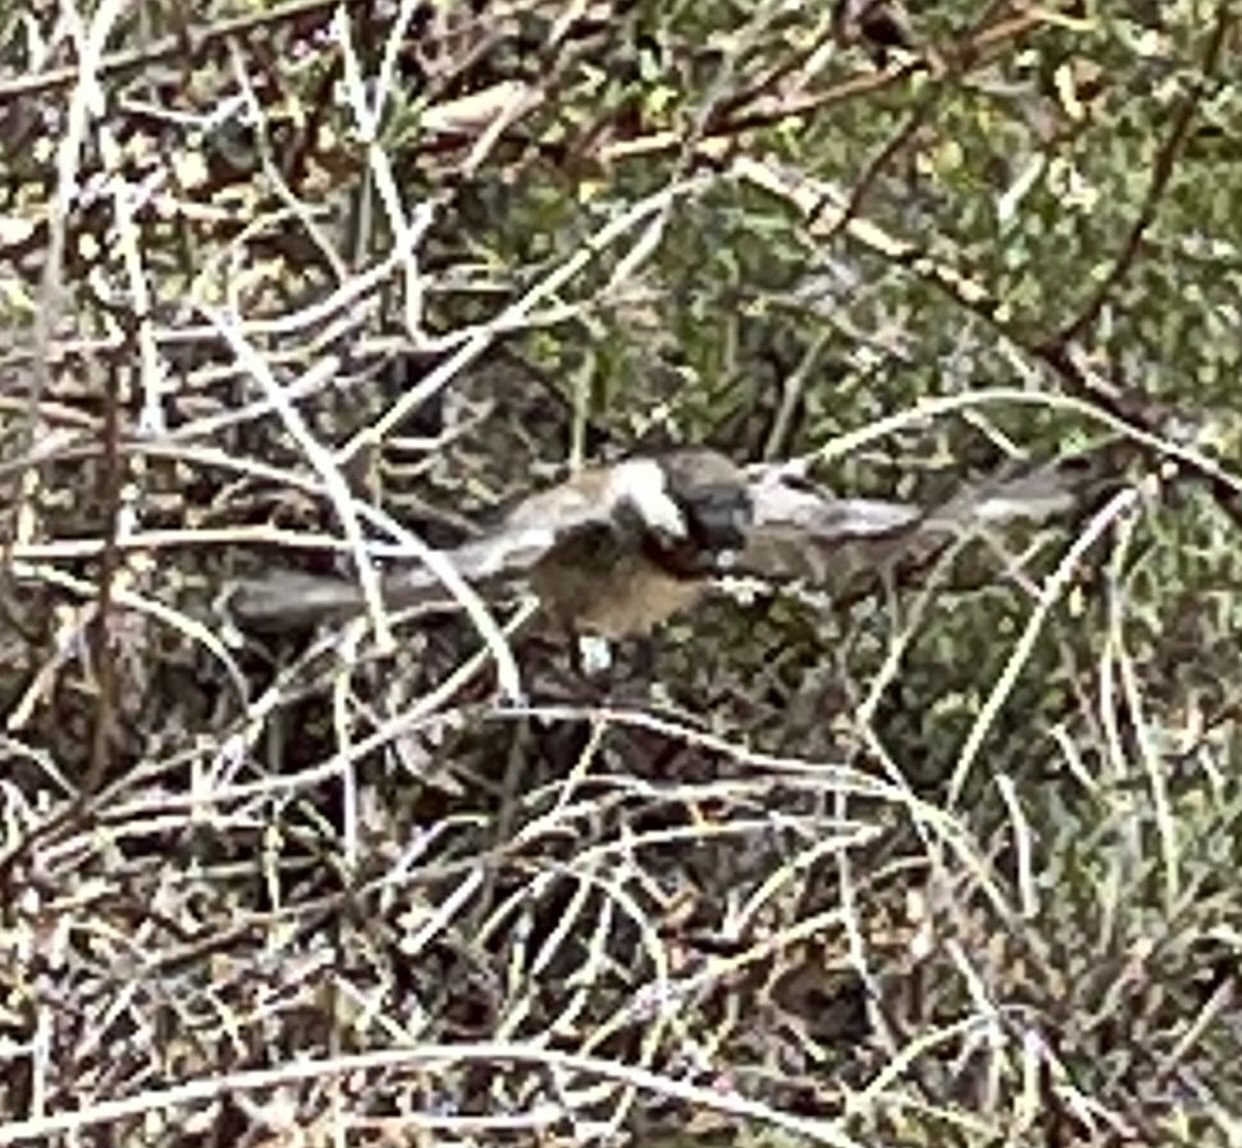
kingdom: Animalia
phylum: Chordata
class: Aves
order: Passeriformes
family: Paridae
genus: Poecile
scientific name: Poecile rufescens
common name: Chestnut-backed chickadee
